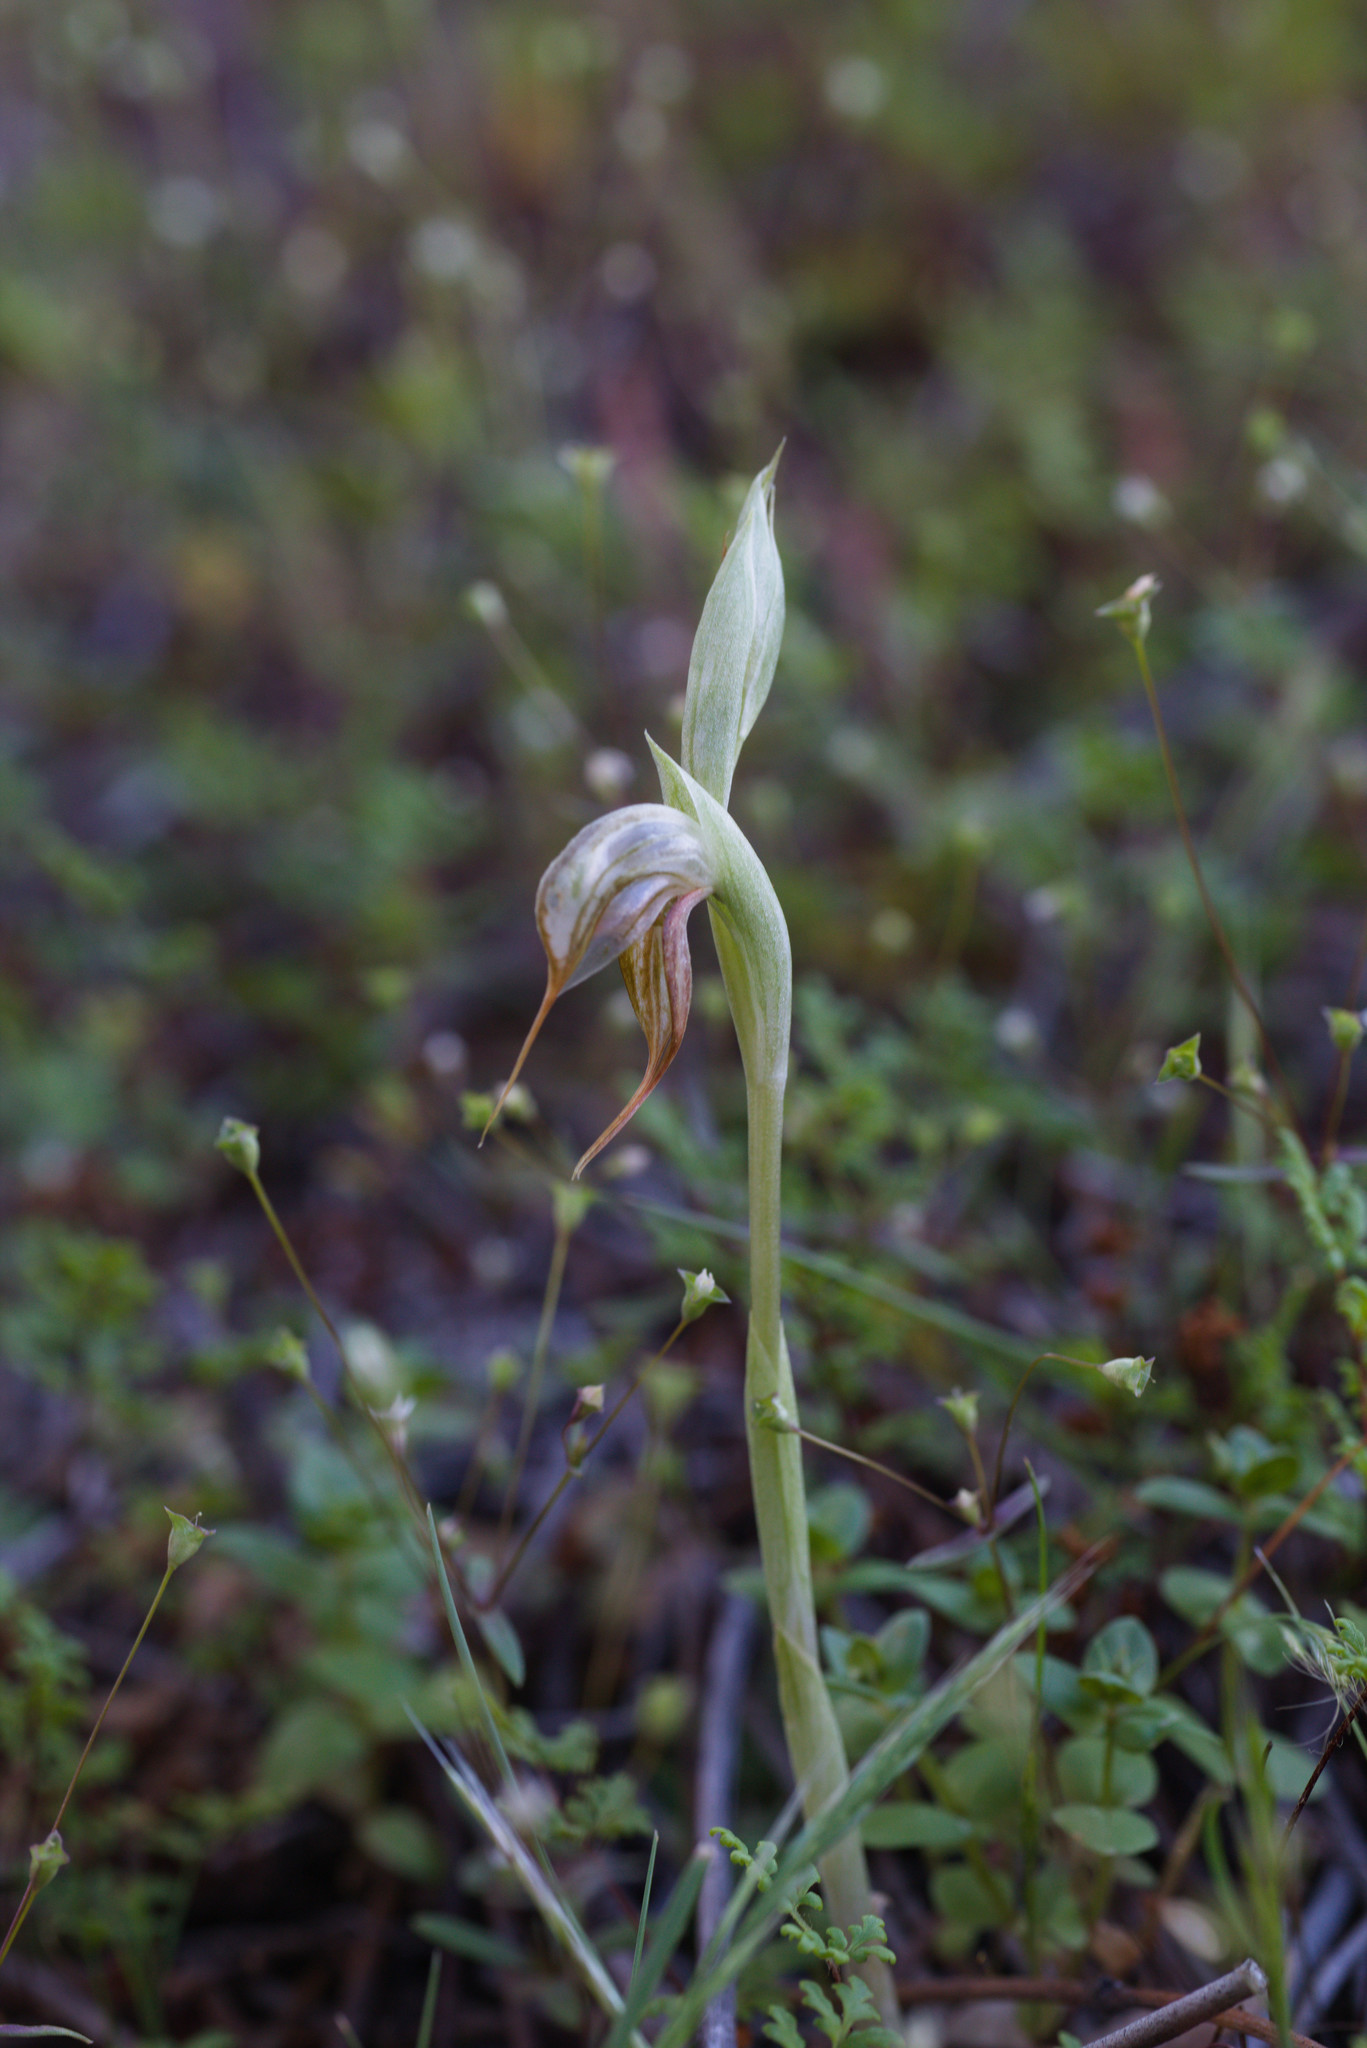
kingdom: Plantae
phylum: Tracheophyta
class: Liliopsida
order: Asparagales
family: Orchidaceae
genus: Pterostylis
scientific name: Pterostylis spathulata
